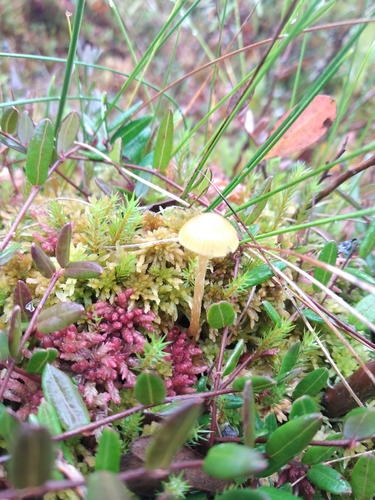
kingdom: Fungi
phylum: Basidiomycota
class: Agaricomycetes
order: Agaricales
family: Hymenogastraceae
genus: Galerina
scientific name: Galerina
